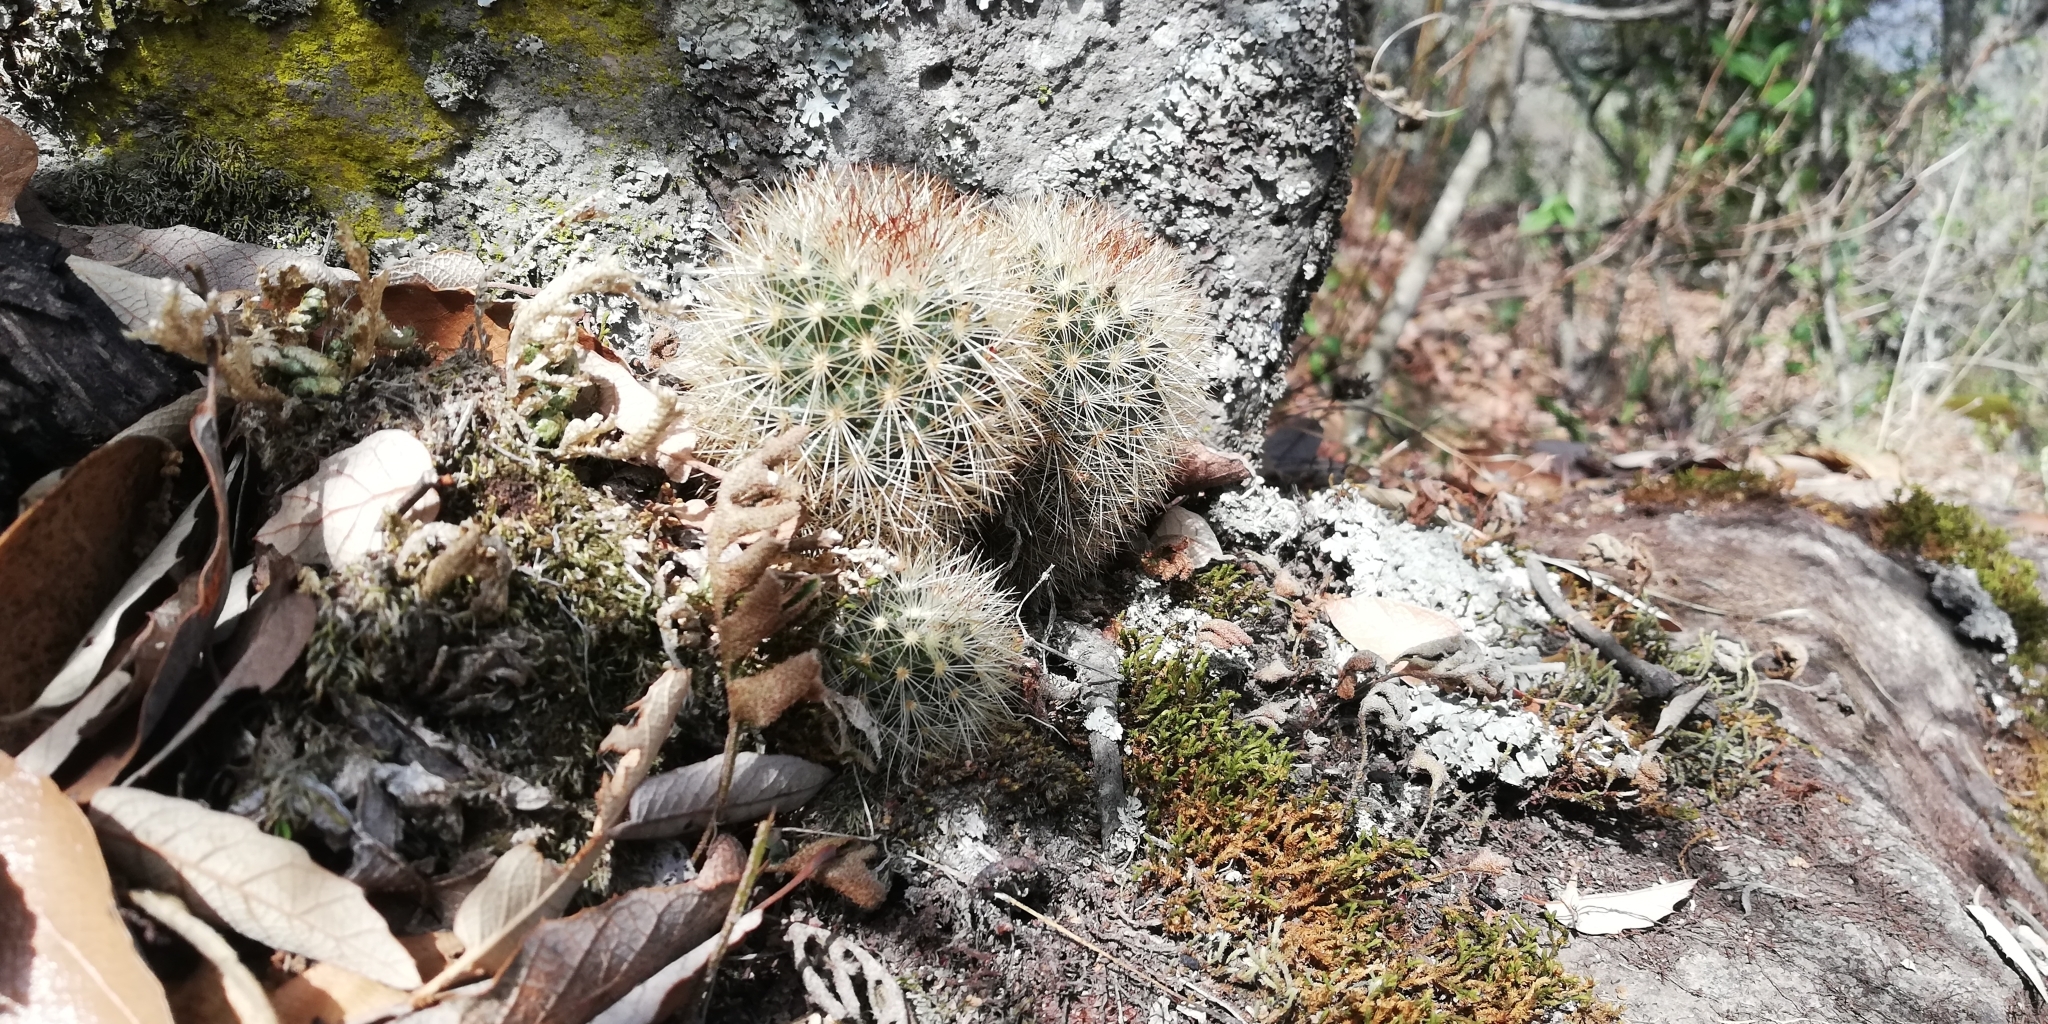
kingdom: Plantae
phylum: Tracheophyta
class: Magnoliopsida
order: Caryophyllales
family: Cactaceae
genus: Mammillaria
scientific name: Mammillaria densispina
